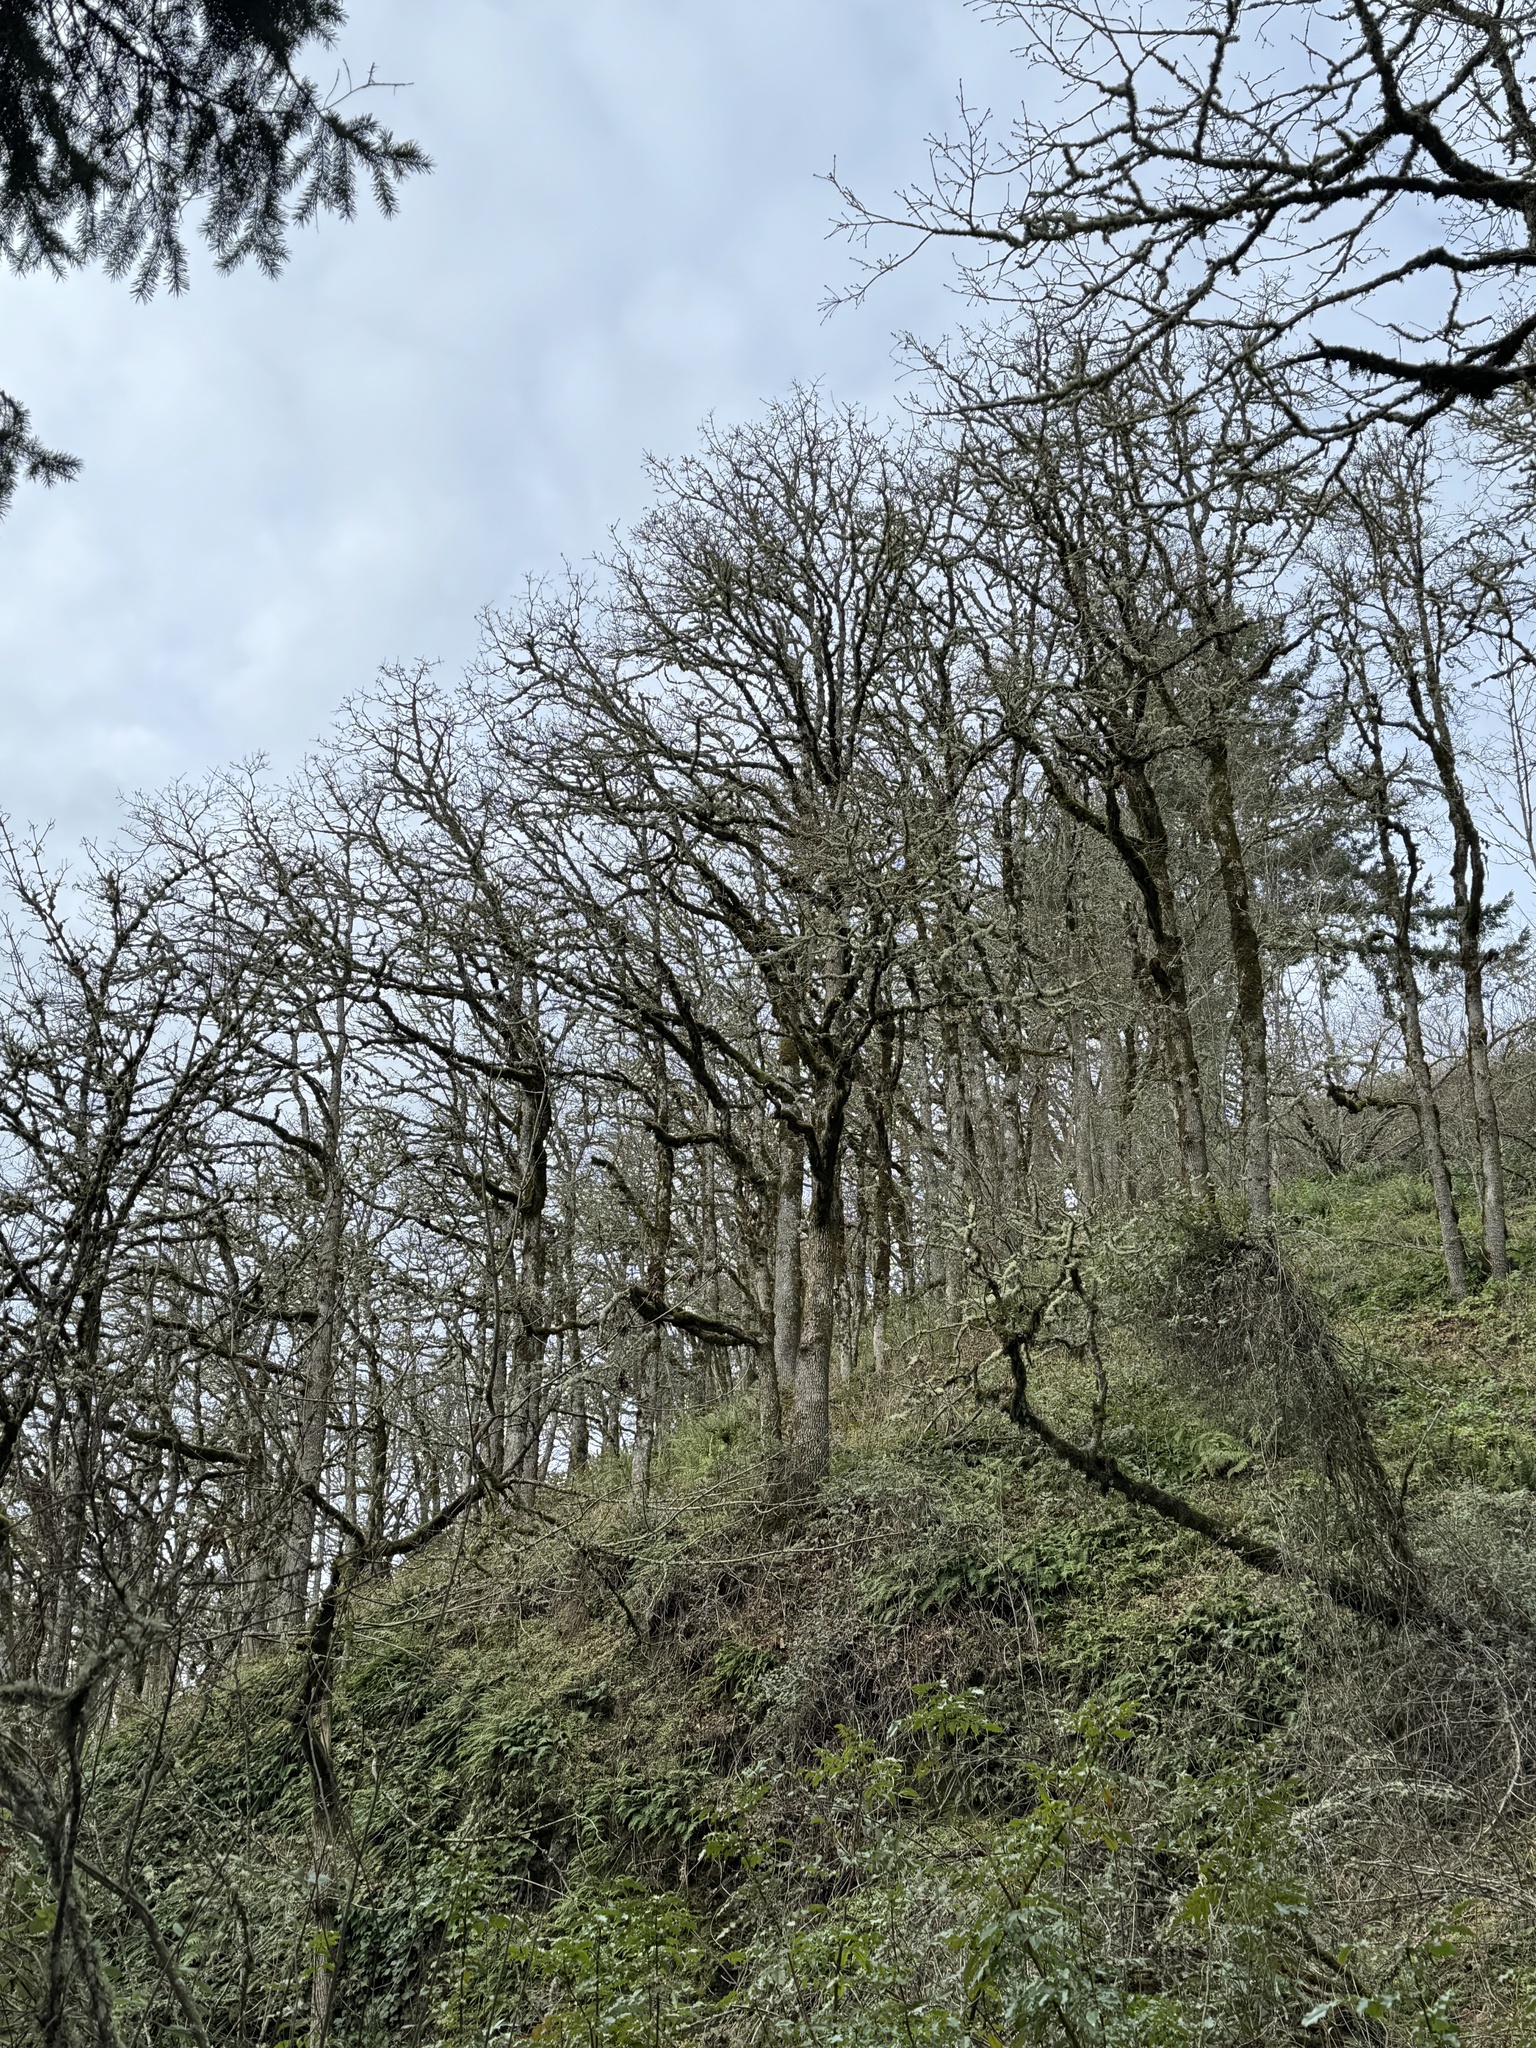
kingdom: Plantae
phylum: Tracheophyta
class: Magnoliopsida
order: Fagales
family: Fagaceae
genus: Quercus
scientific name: Quercus garryana
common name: Garry oak
